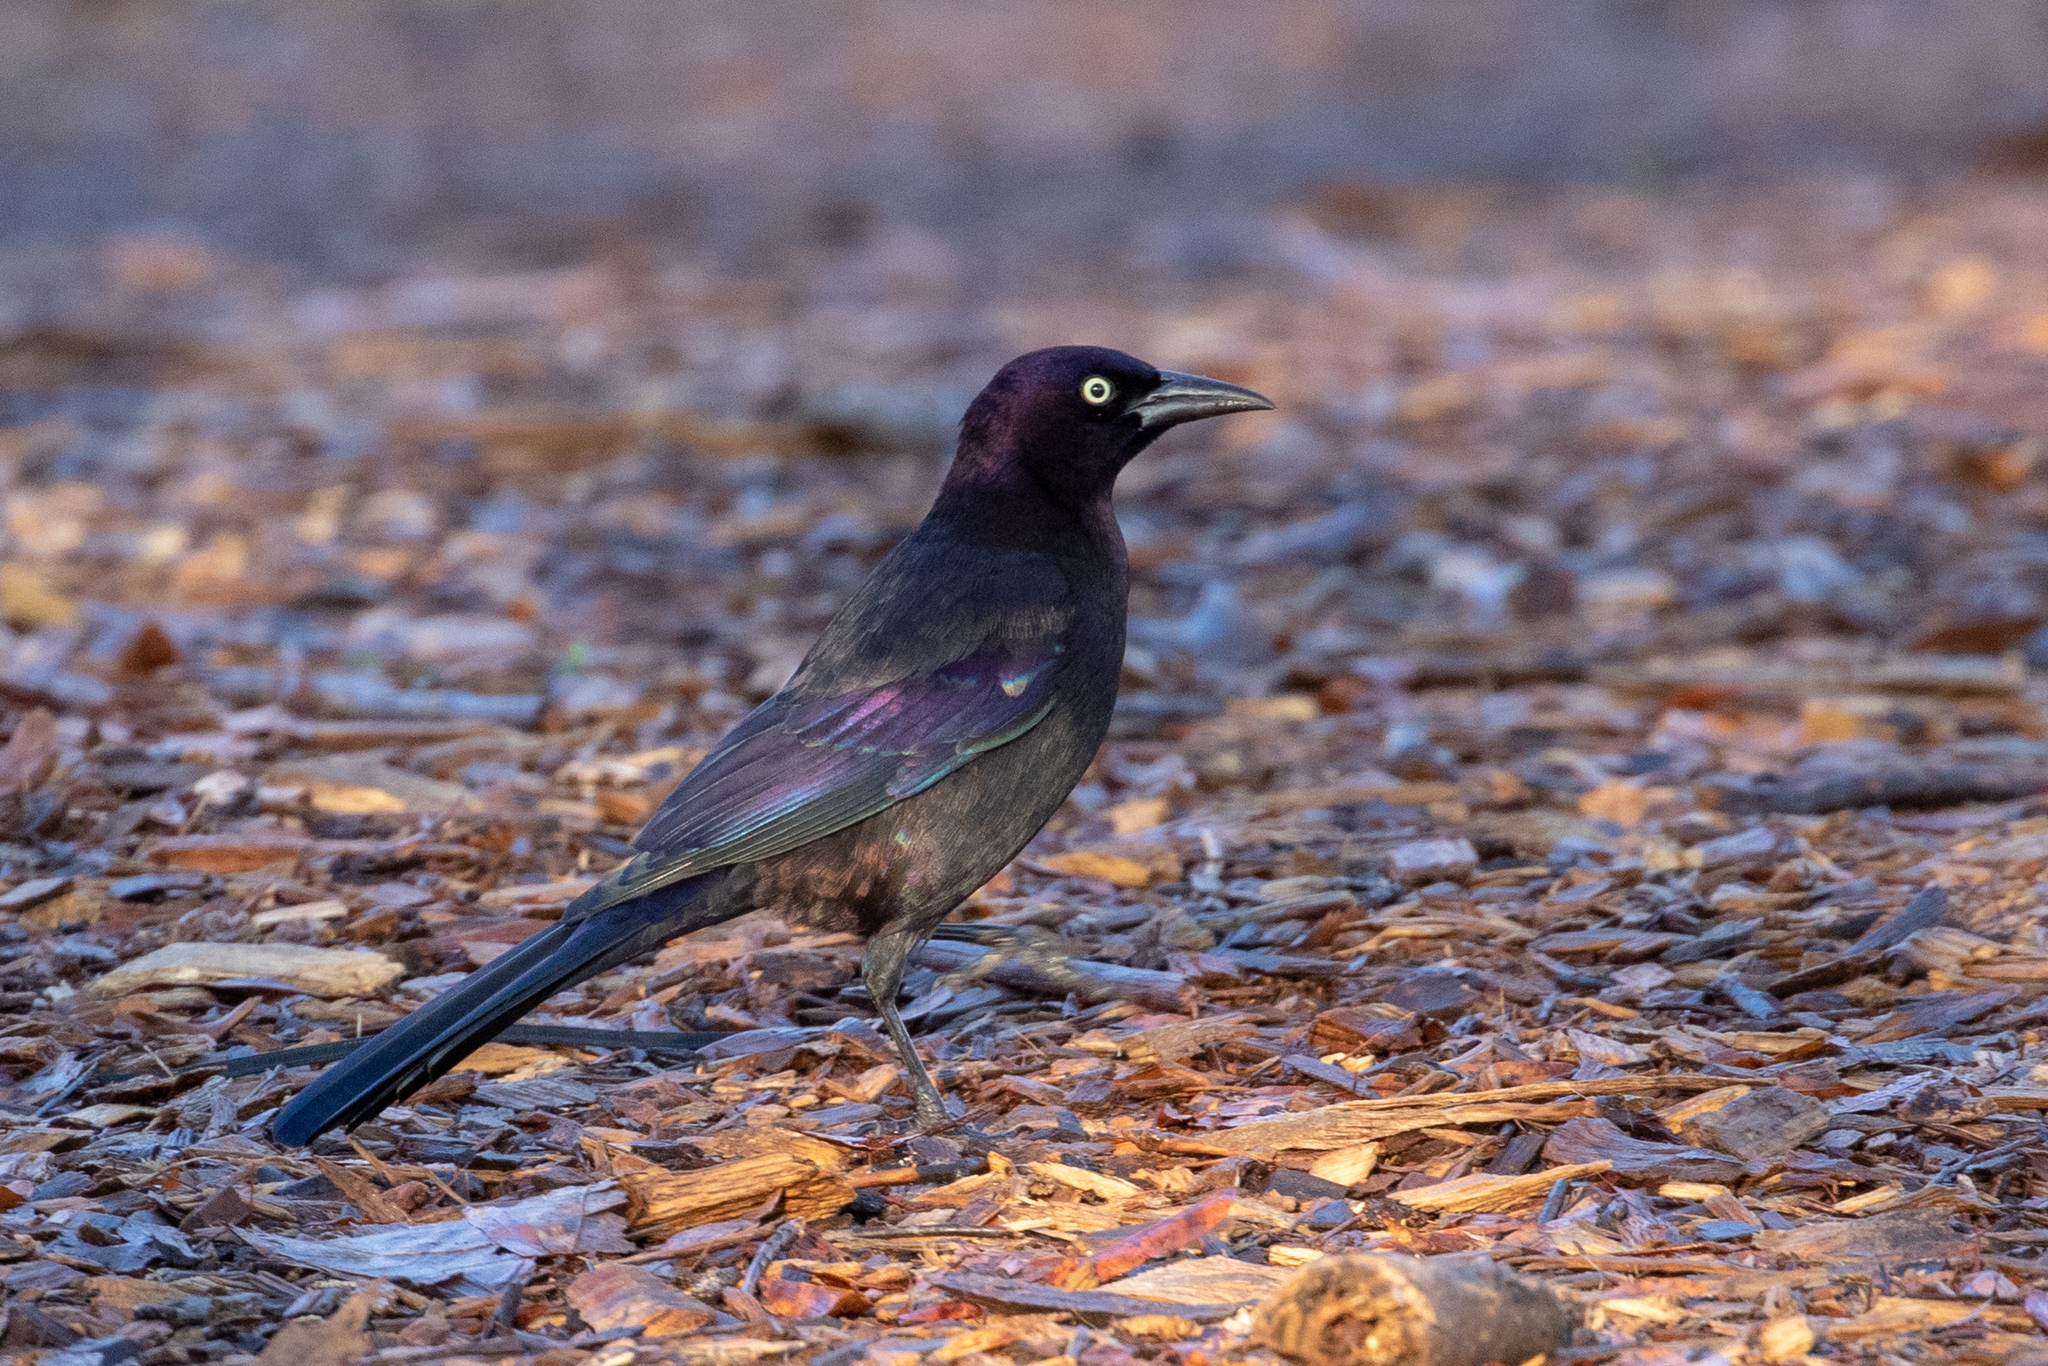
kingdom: Animalia
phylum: Chordata
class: Aves
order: Passeriformes
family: Icteridae
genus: Quiscalus
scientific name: Quiscalus quiscula
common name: Common grackle
